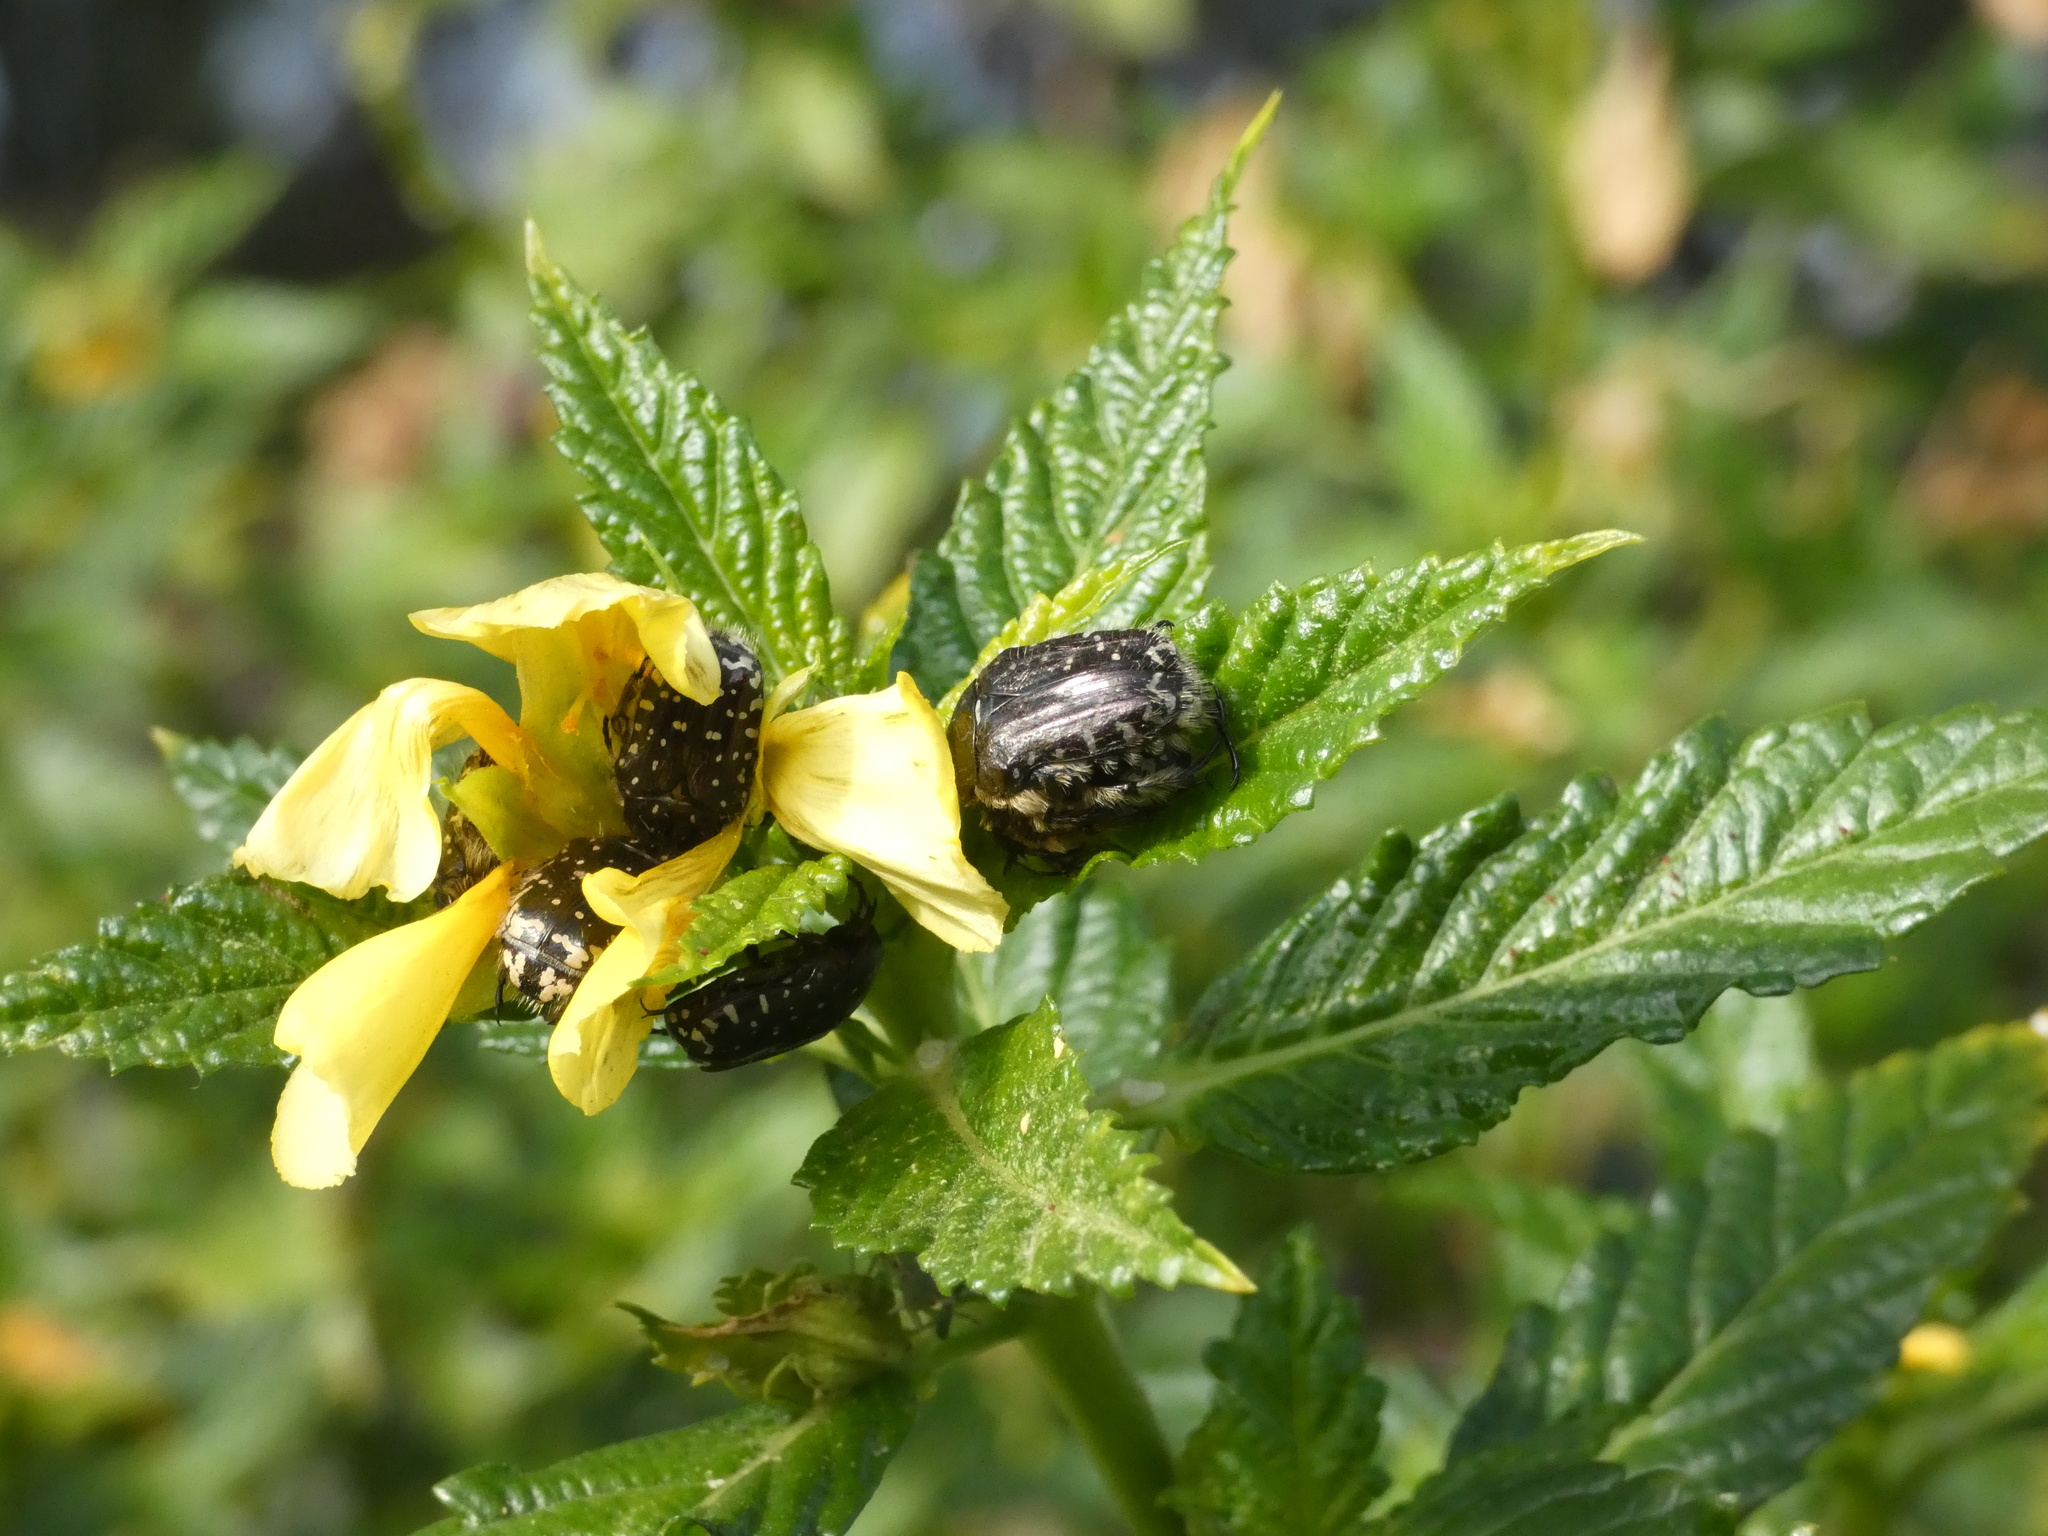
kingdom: Animalia
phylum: Arthropoda
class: Insecta
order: Coleoptera
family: Scarabaeidae
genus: Oxythyrea
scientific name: Oxythyrea funesta
